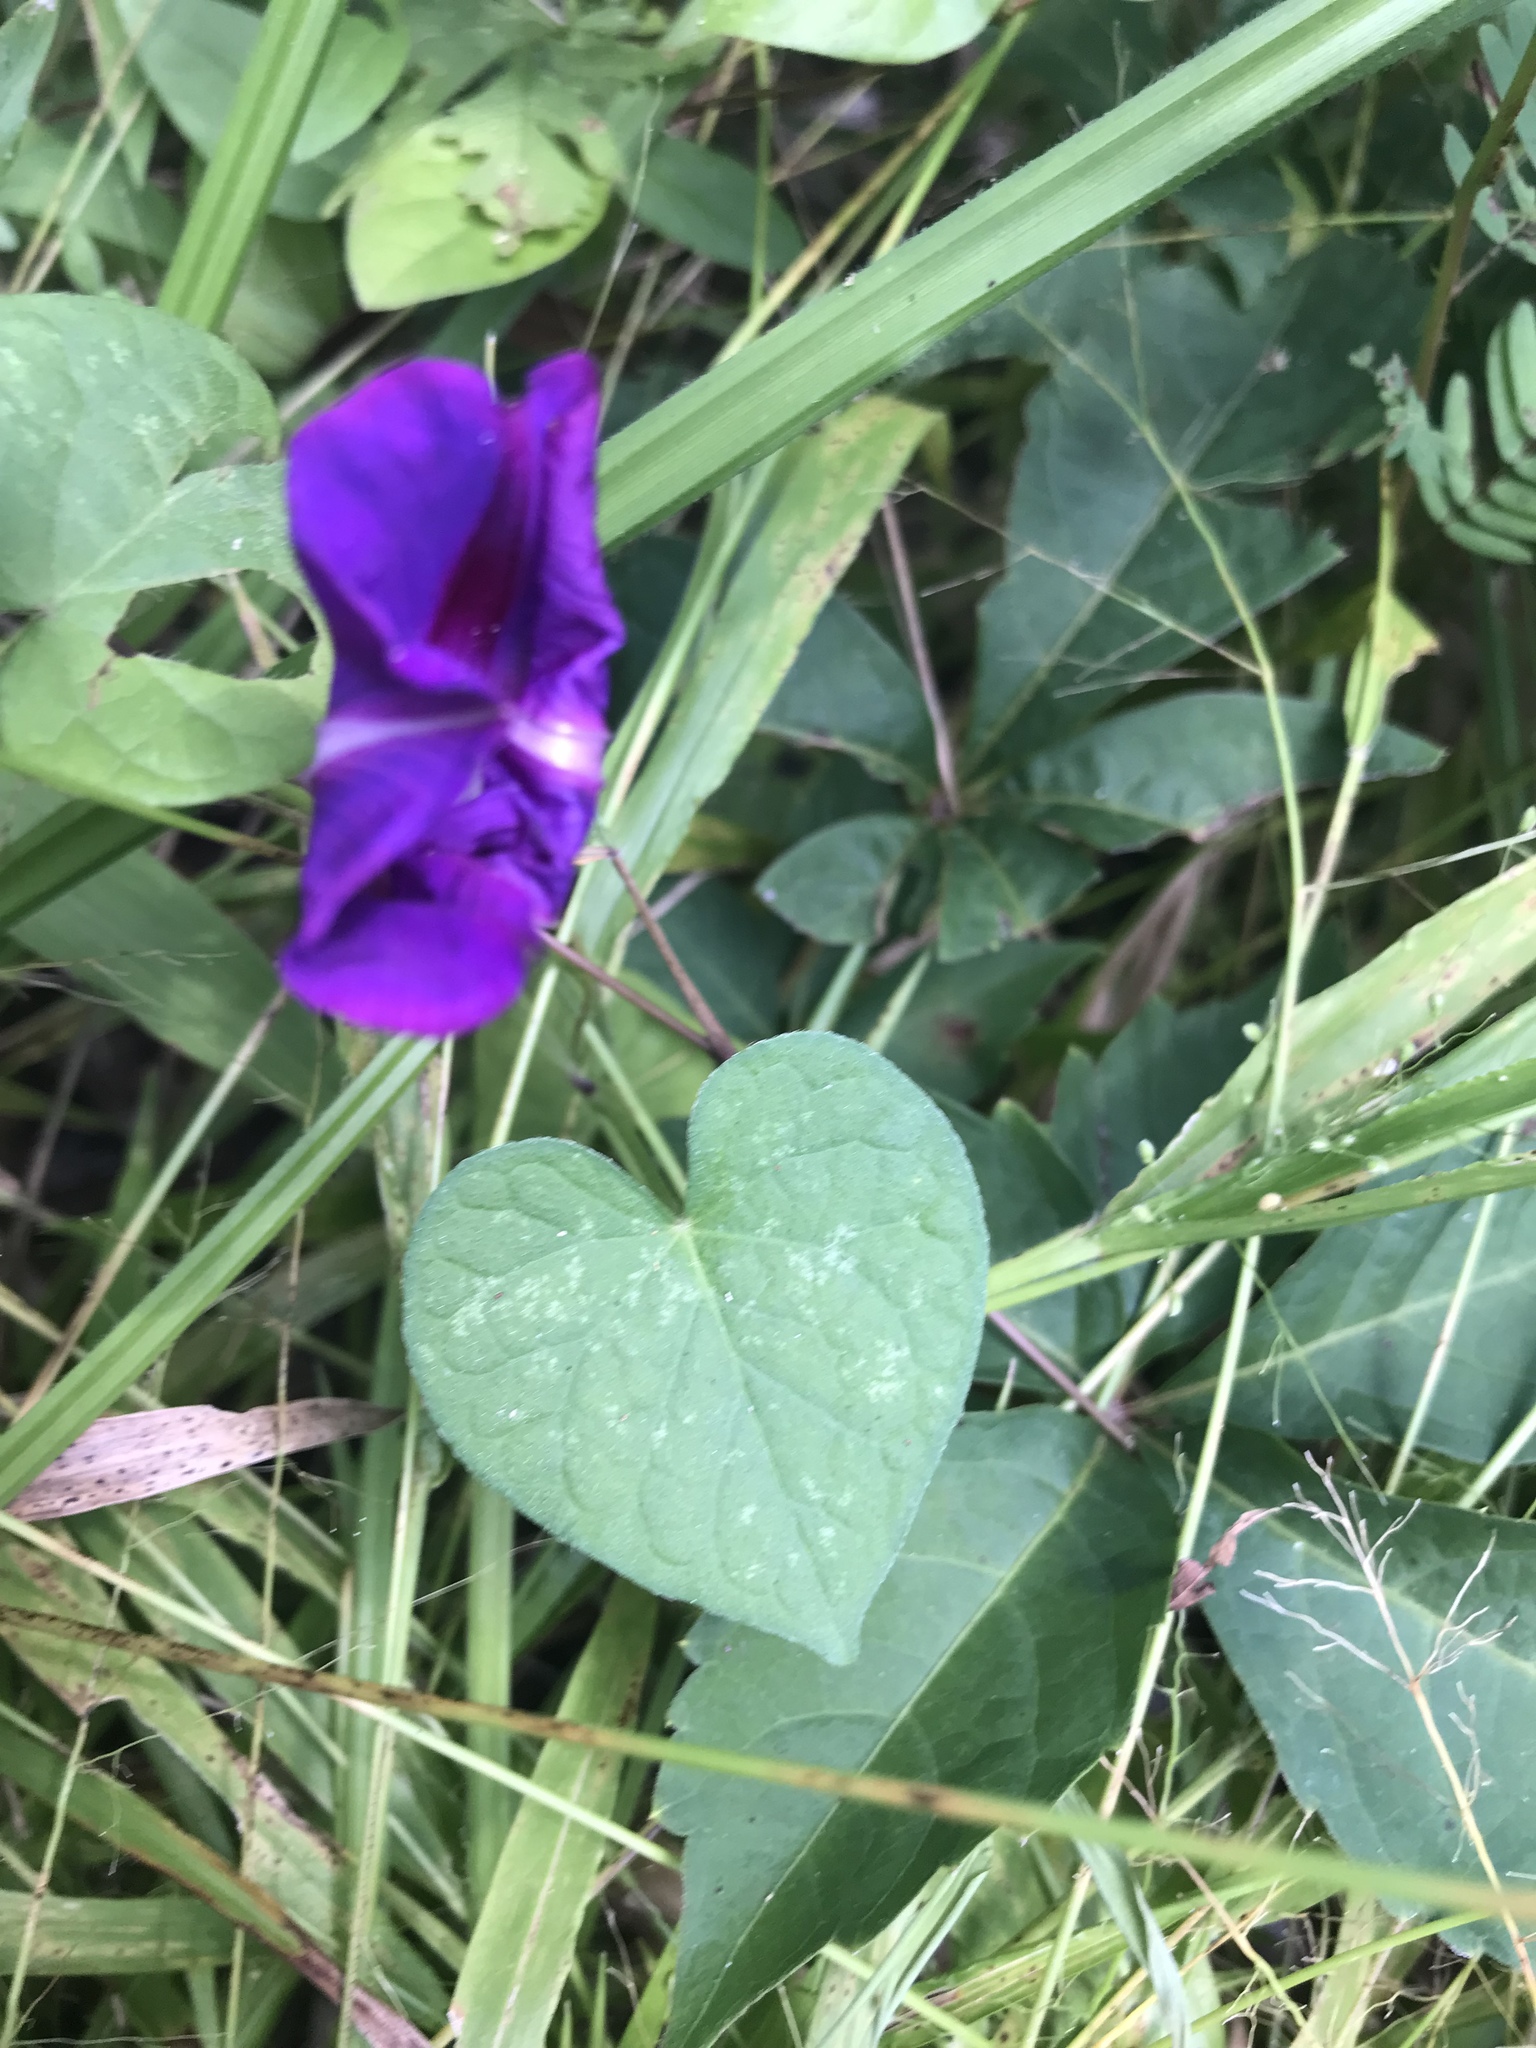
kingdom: Plantae
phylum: Tracheophyta
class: Magnoliopsida
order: Solanales
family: Convolvulaceae
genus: Ipomoea
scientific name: Ipomoea purpurea
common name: Common morning-glory
